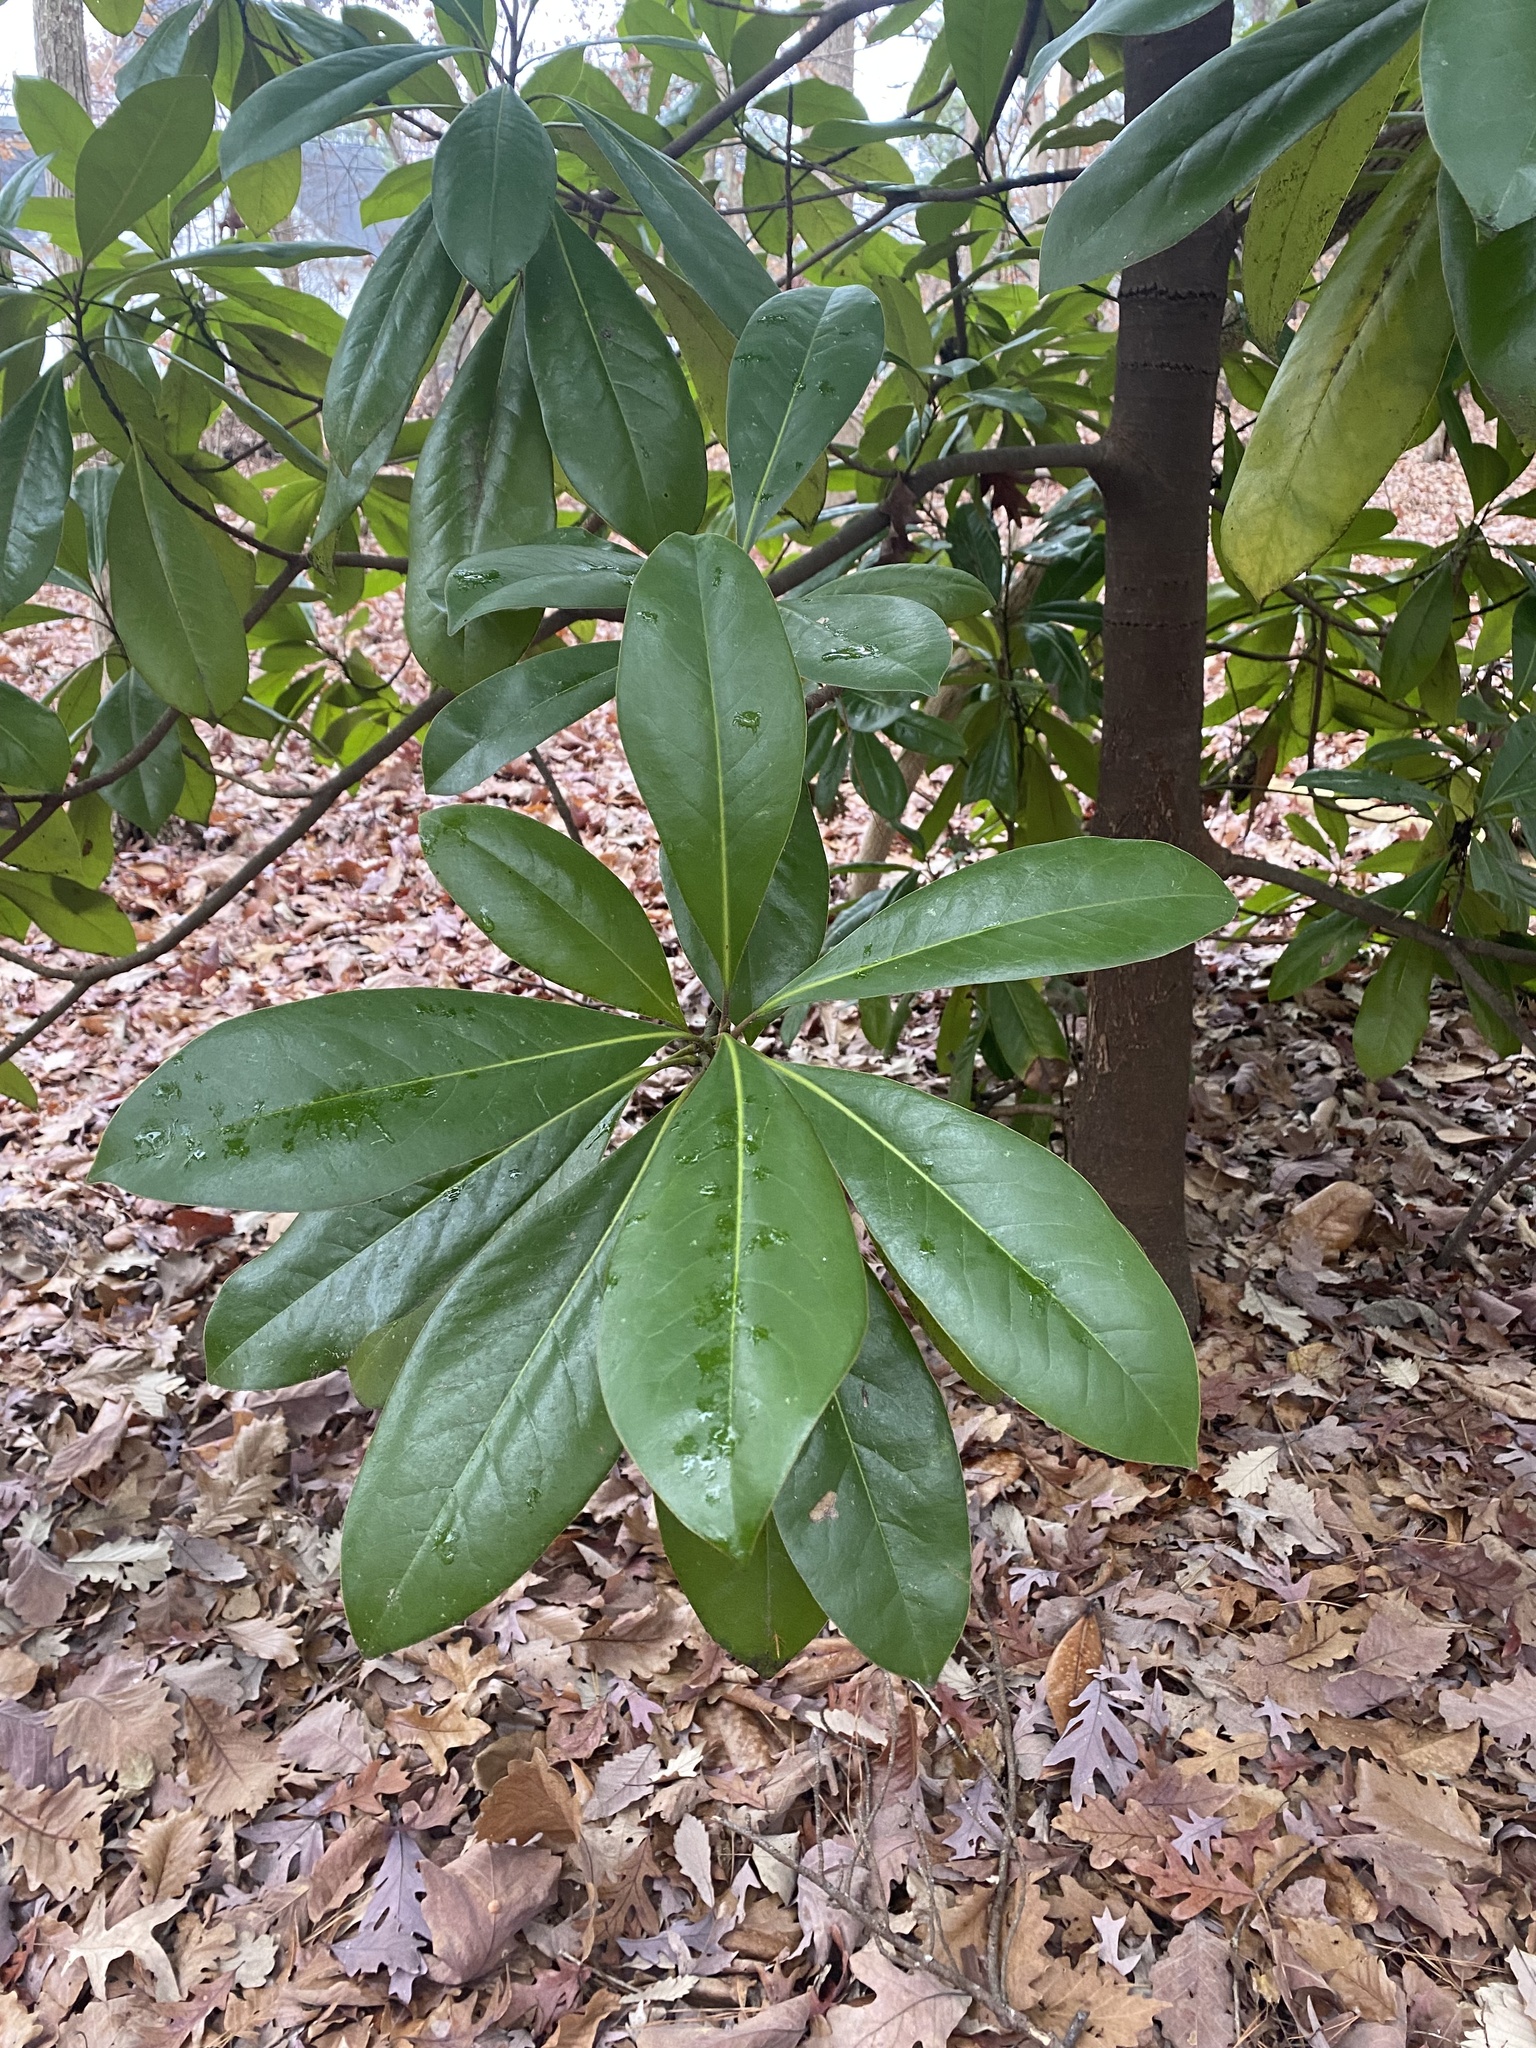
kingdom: Plantae
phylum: Tracheophyta
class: Magnoliopsida
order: Magnoliales
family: Magnoliaceae
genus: Magnolia
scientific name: Magnolia grandiflora
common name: Southern magnolia
